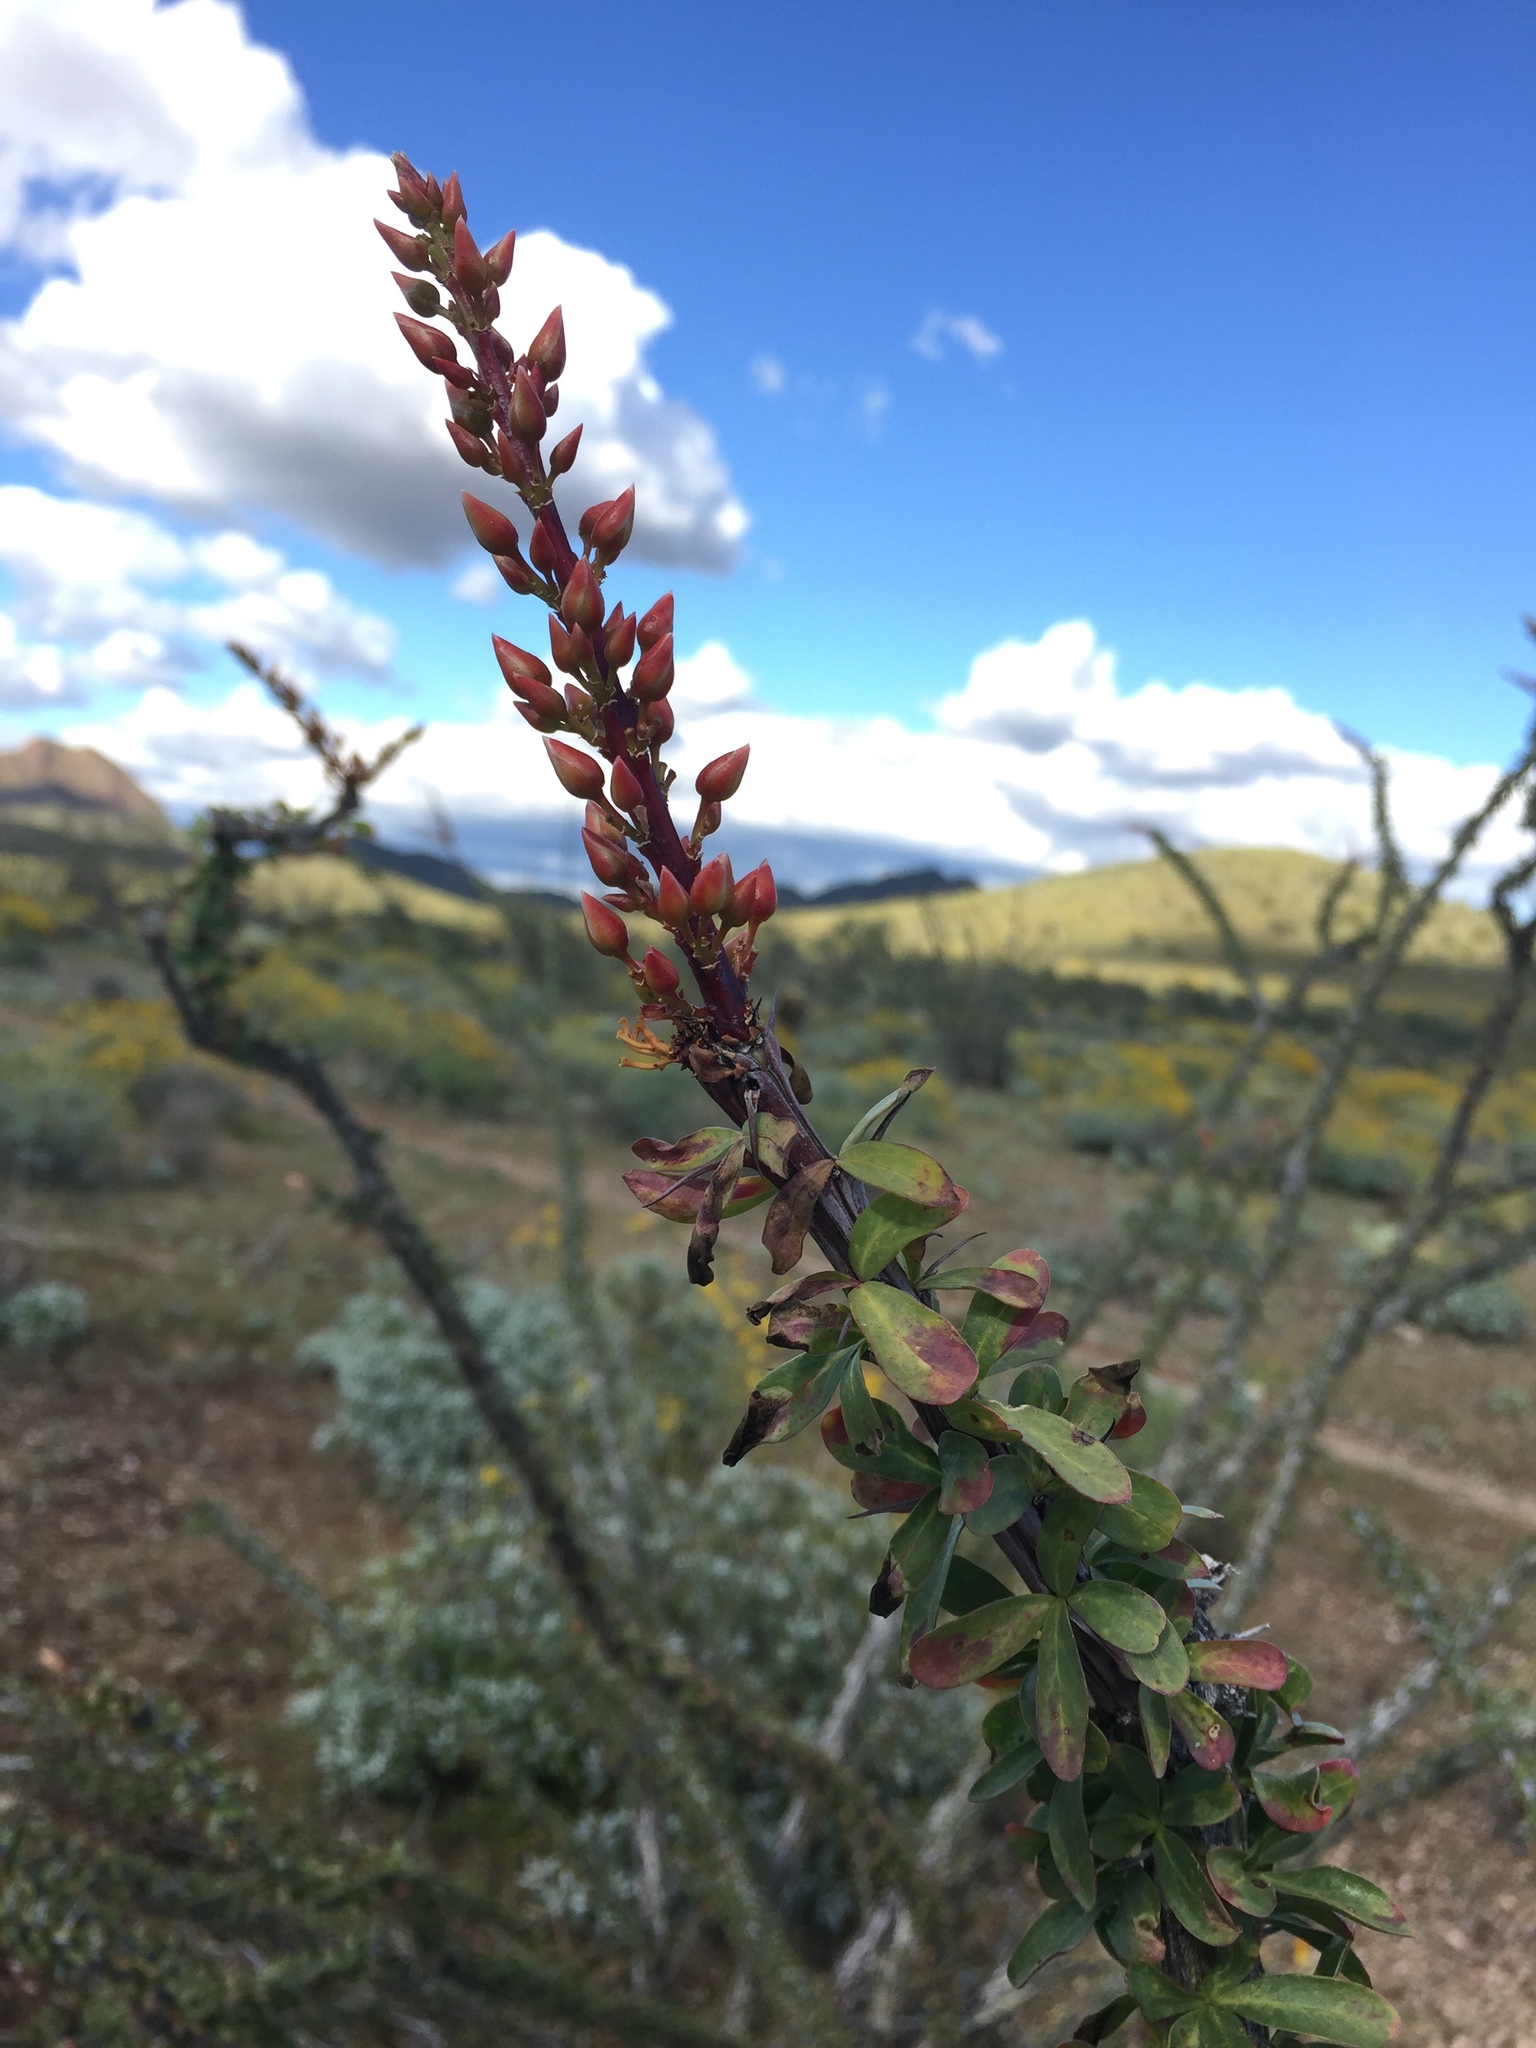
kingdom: Plantae
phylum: Tracheophyta
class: Magnoliopsida
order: Ericales
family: Fouquieriaceae
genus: Fouquieria
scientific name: Fouquieria splendens
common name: Vine-cactus
